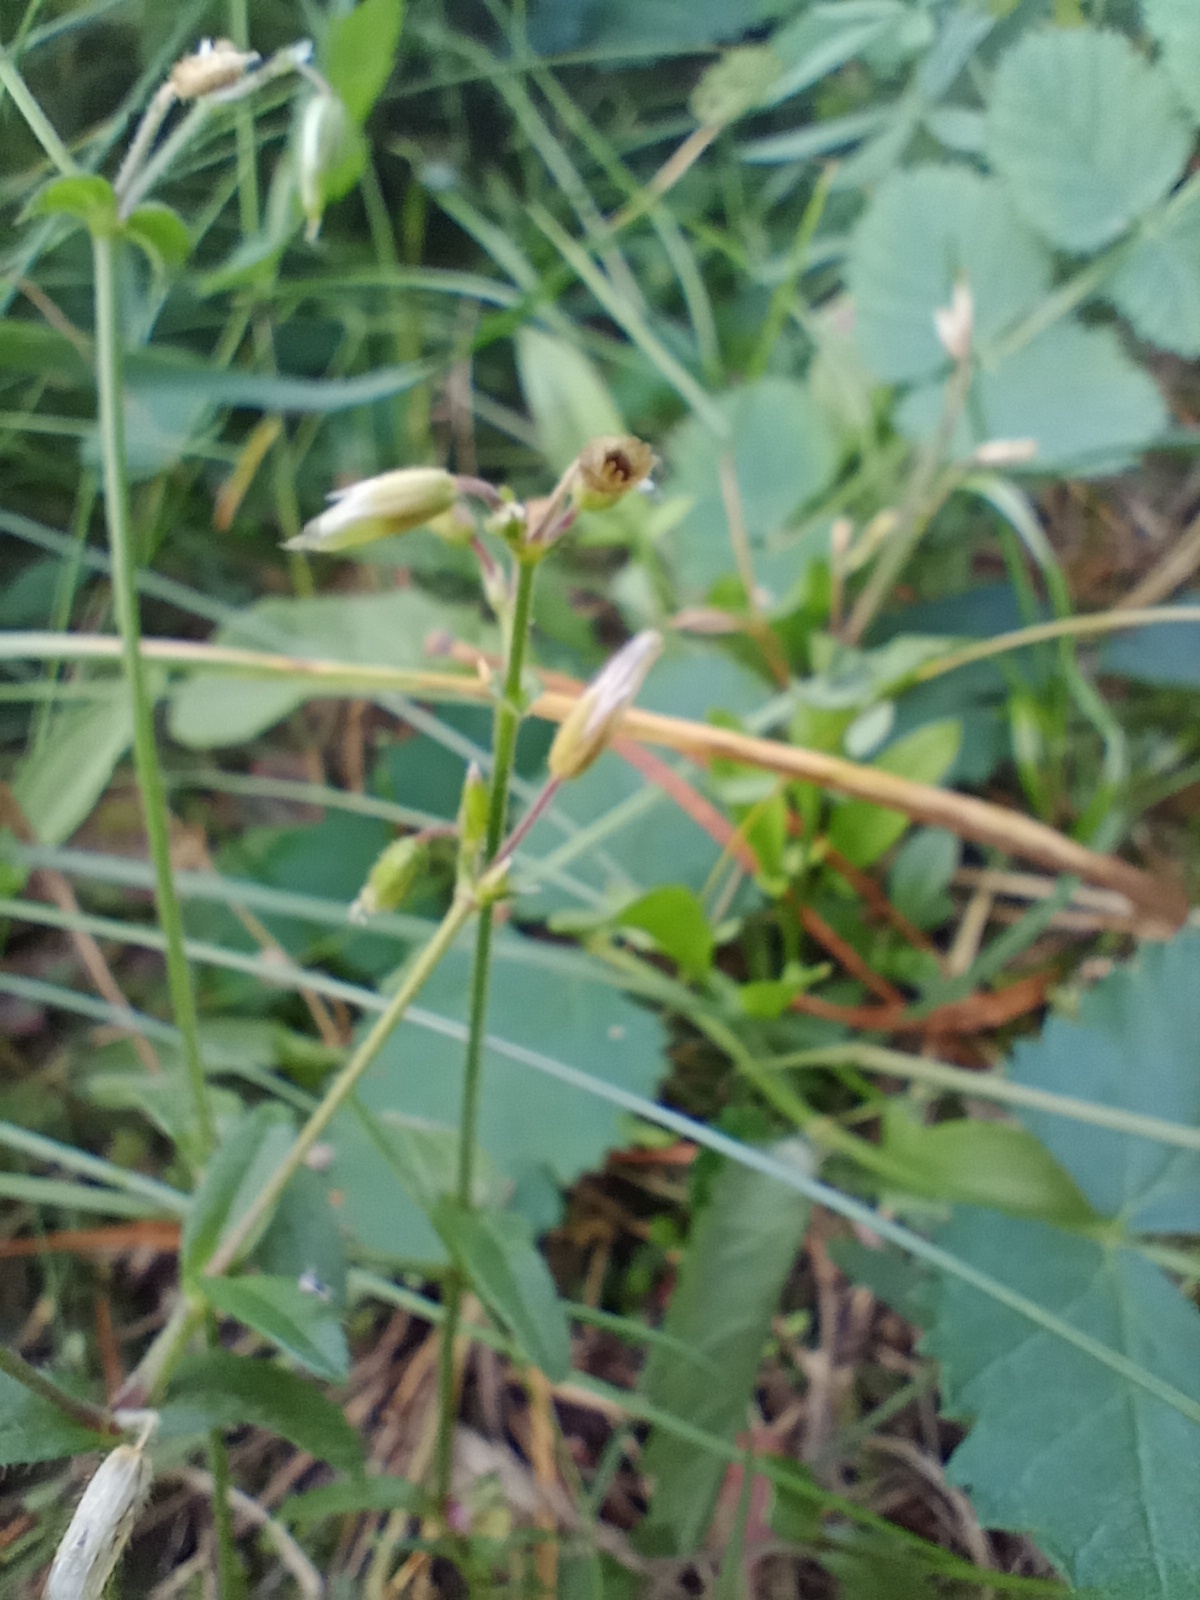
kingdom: Plantae
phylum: Tracheophyta
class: Magnoliopsida
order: Caryophyllales
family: Caryophyllaceae
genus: Cerastium
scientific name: Cerastium holosteoides
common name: Big chickweed
